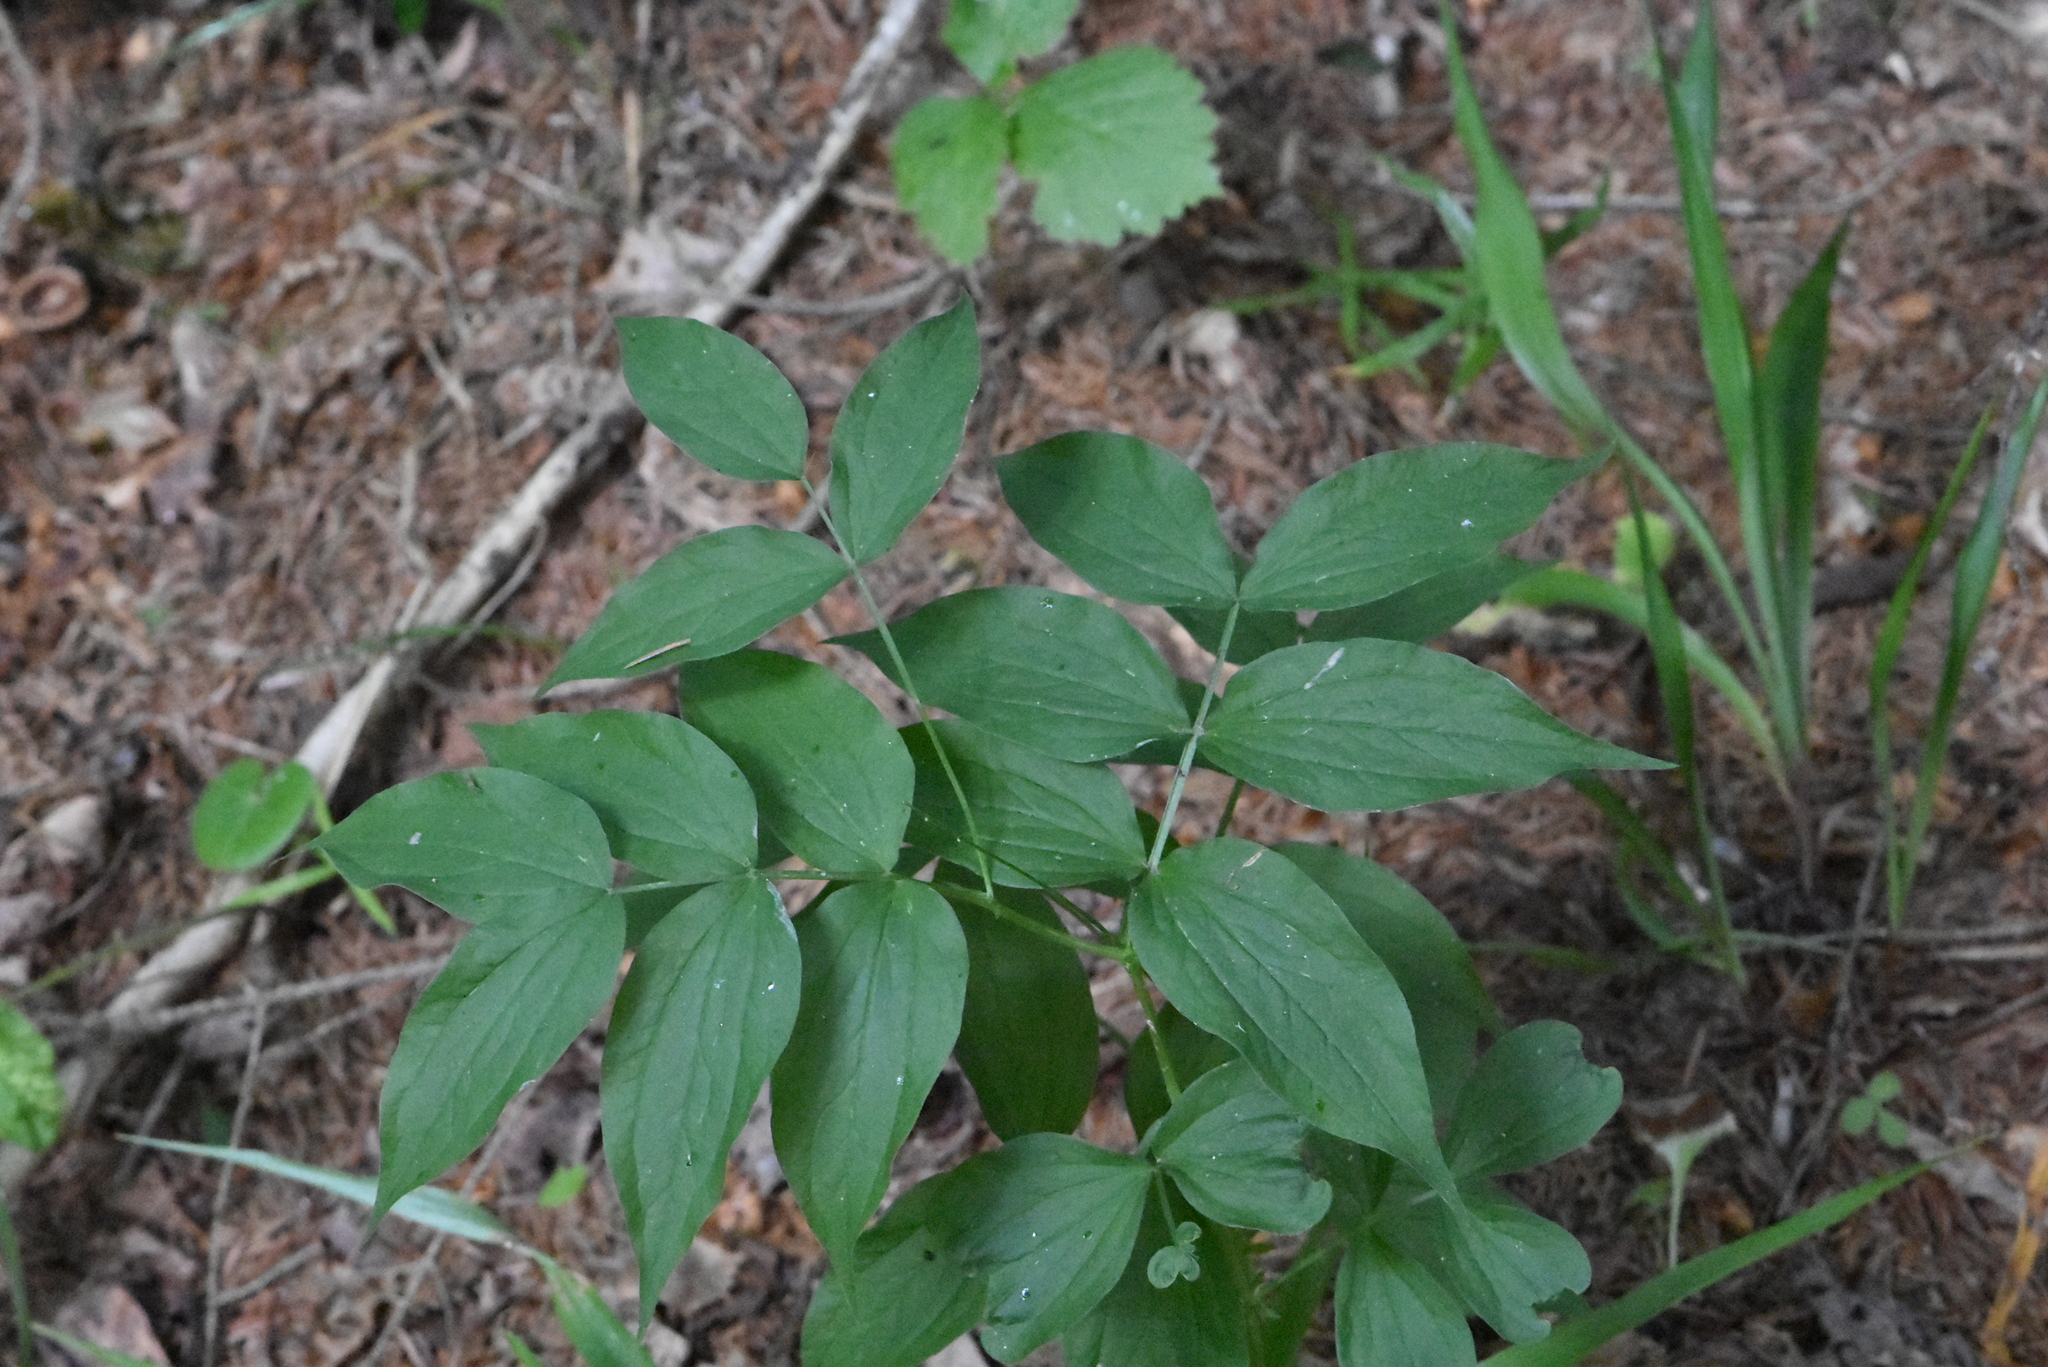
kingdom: Plantae
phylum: Tracheophyta
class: Magnoliopsida
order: Fabales
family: Fabaceae
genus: Lathyrus
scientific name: Lathyrus vernus
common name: Spring pea
